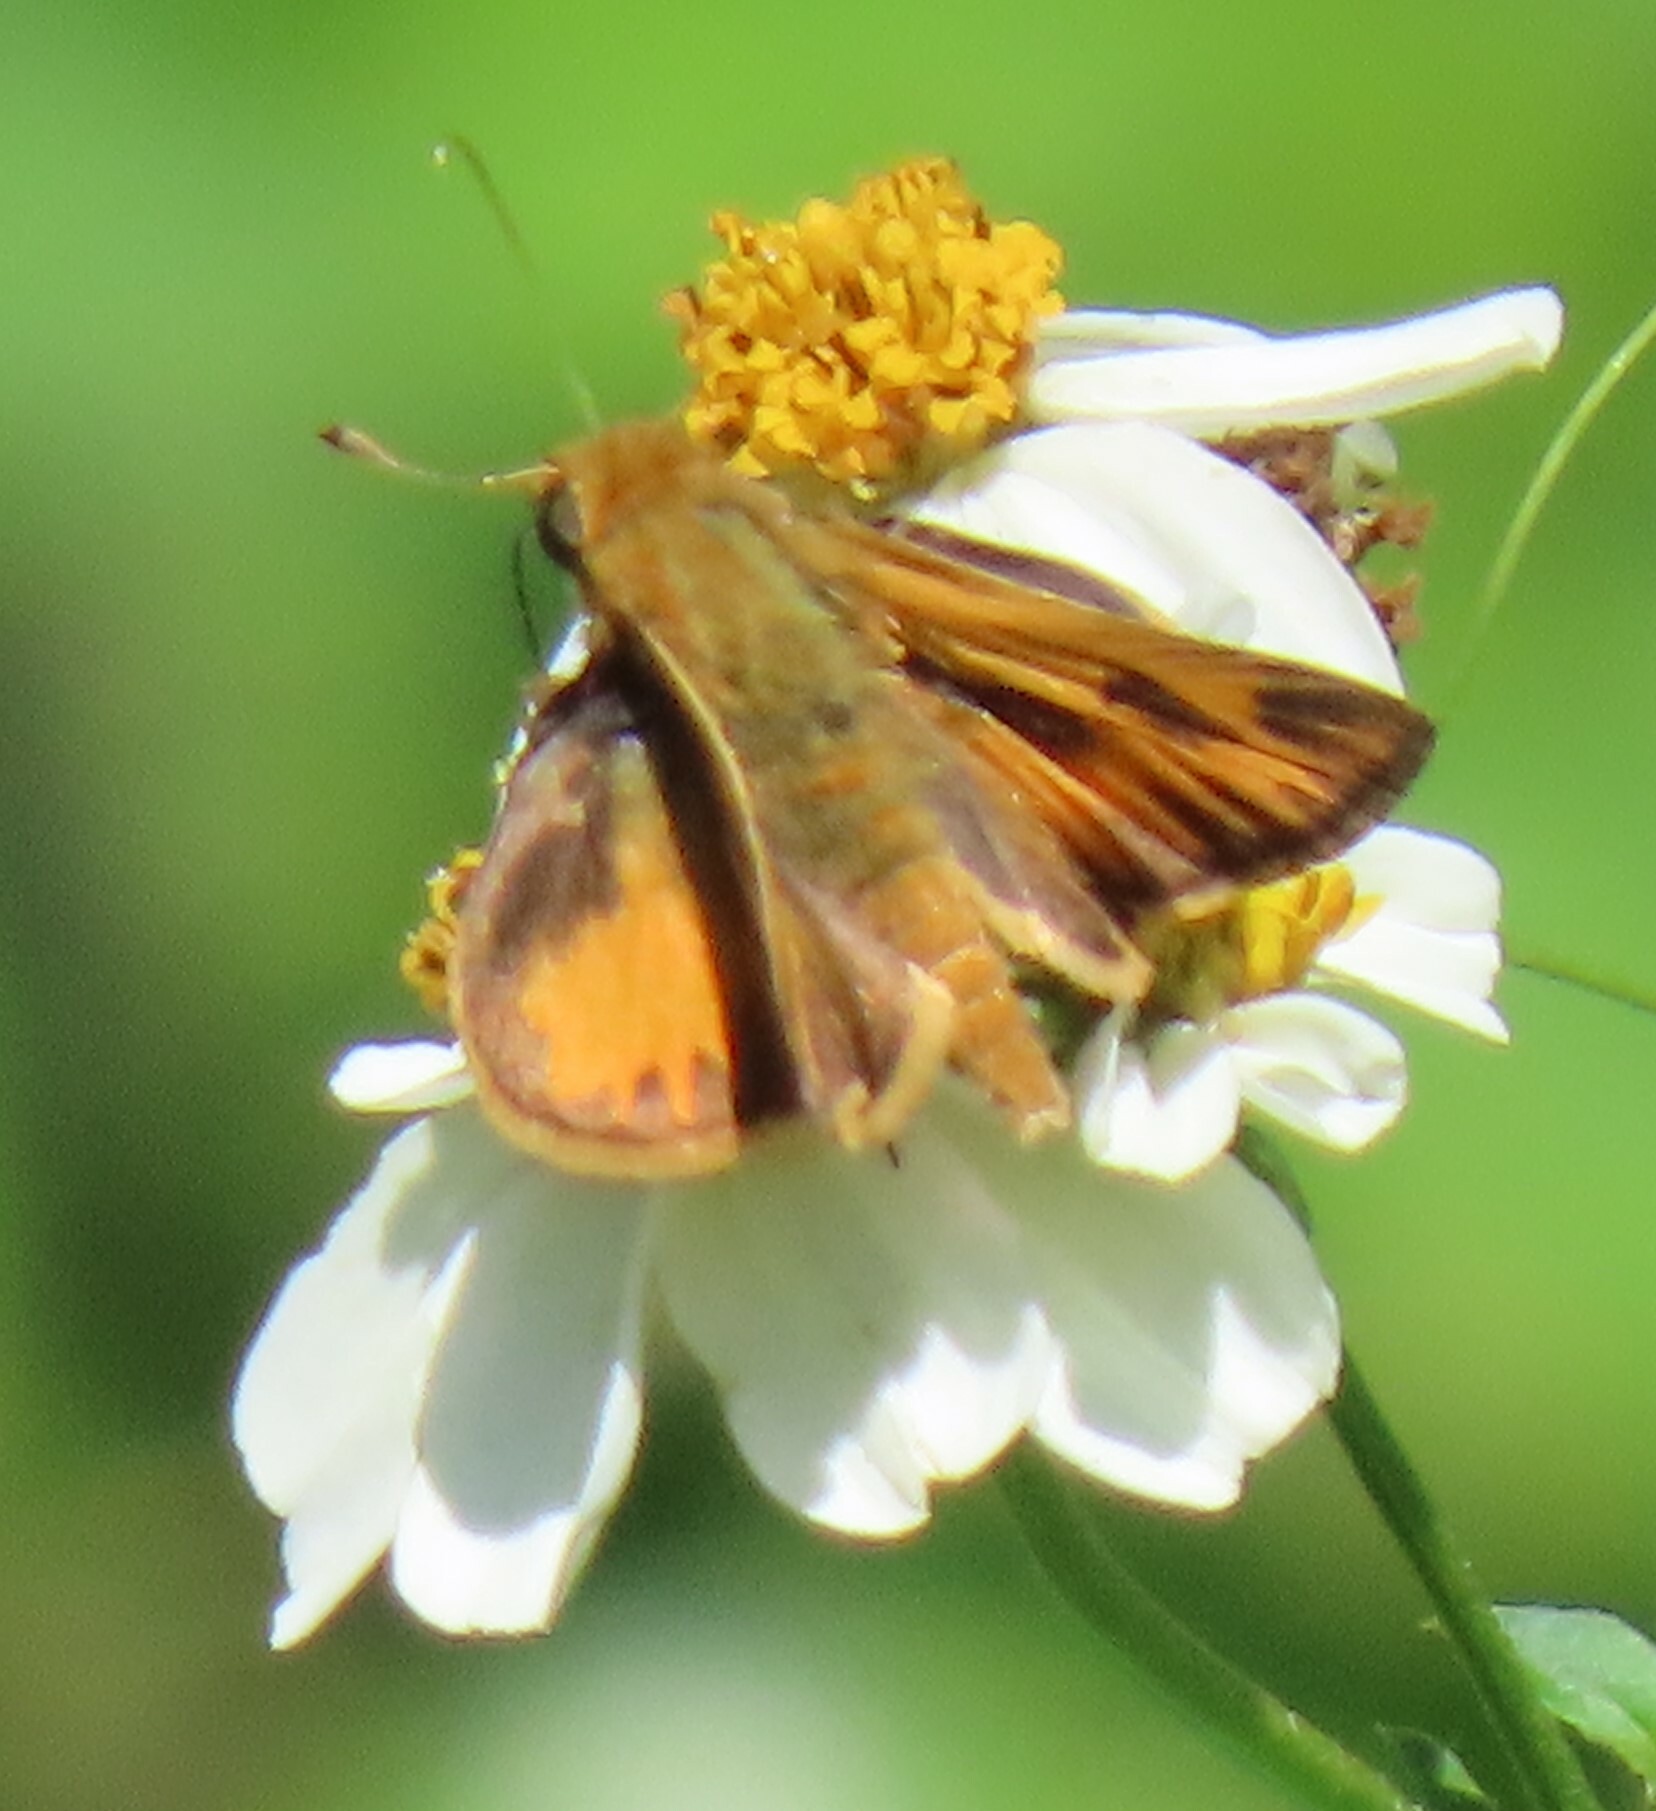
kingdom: Animalia
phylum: Arthropoda
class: Insecta
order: Lepidoptera
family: Hesperiidae
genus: Hylephila
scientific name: Hylephila phyleus
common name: Fiery skipper
